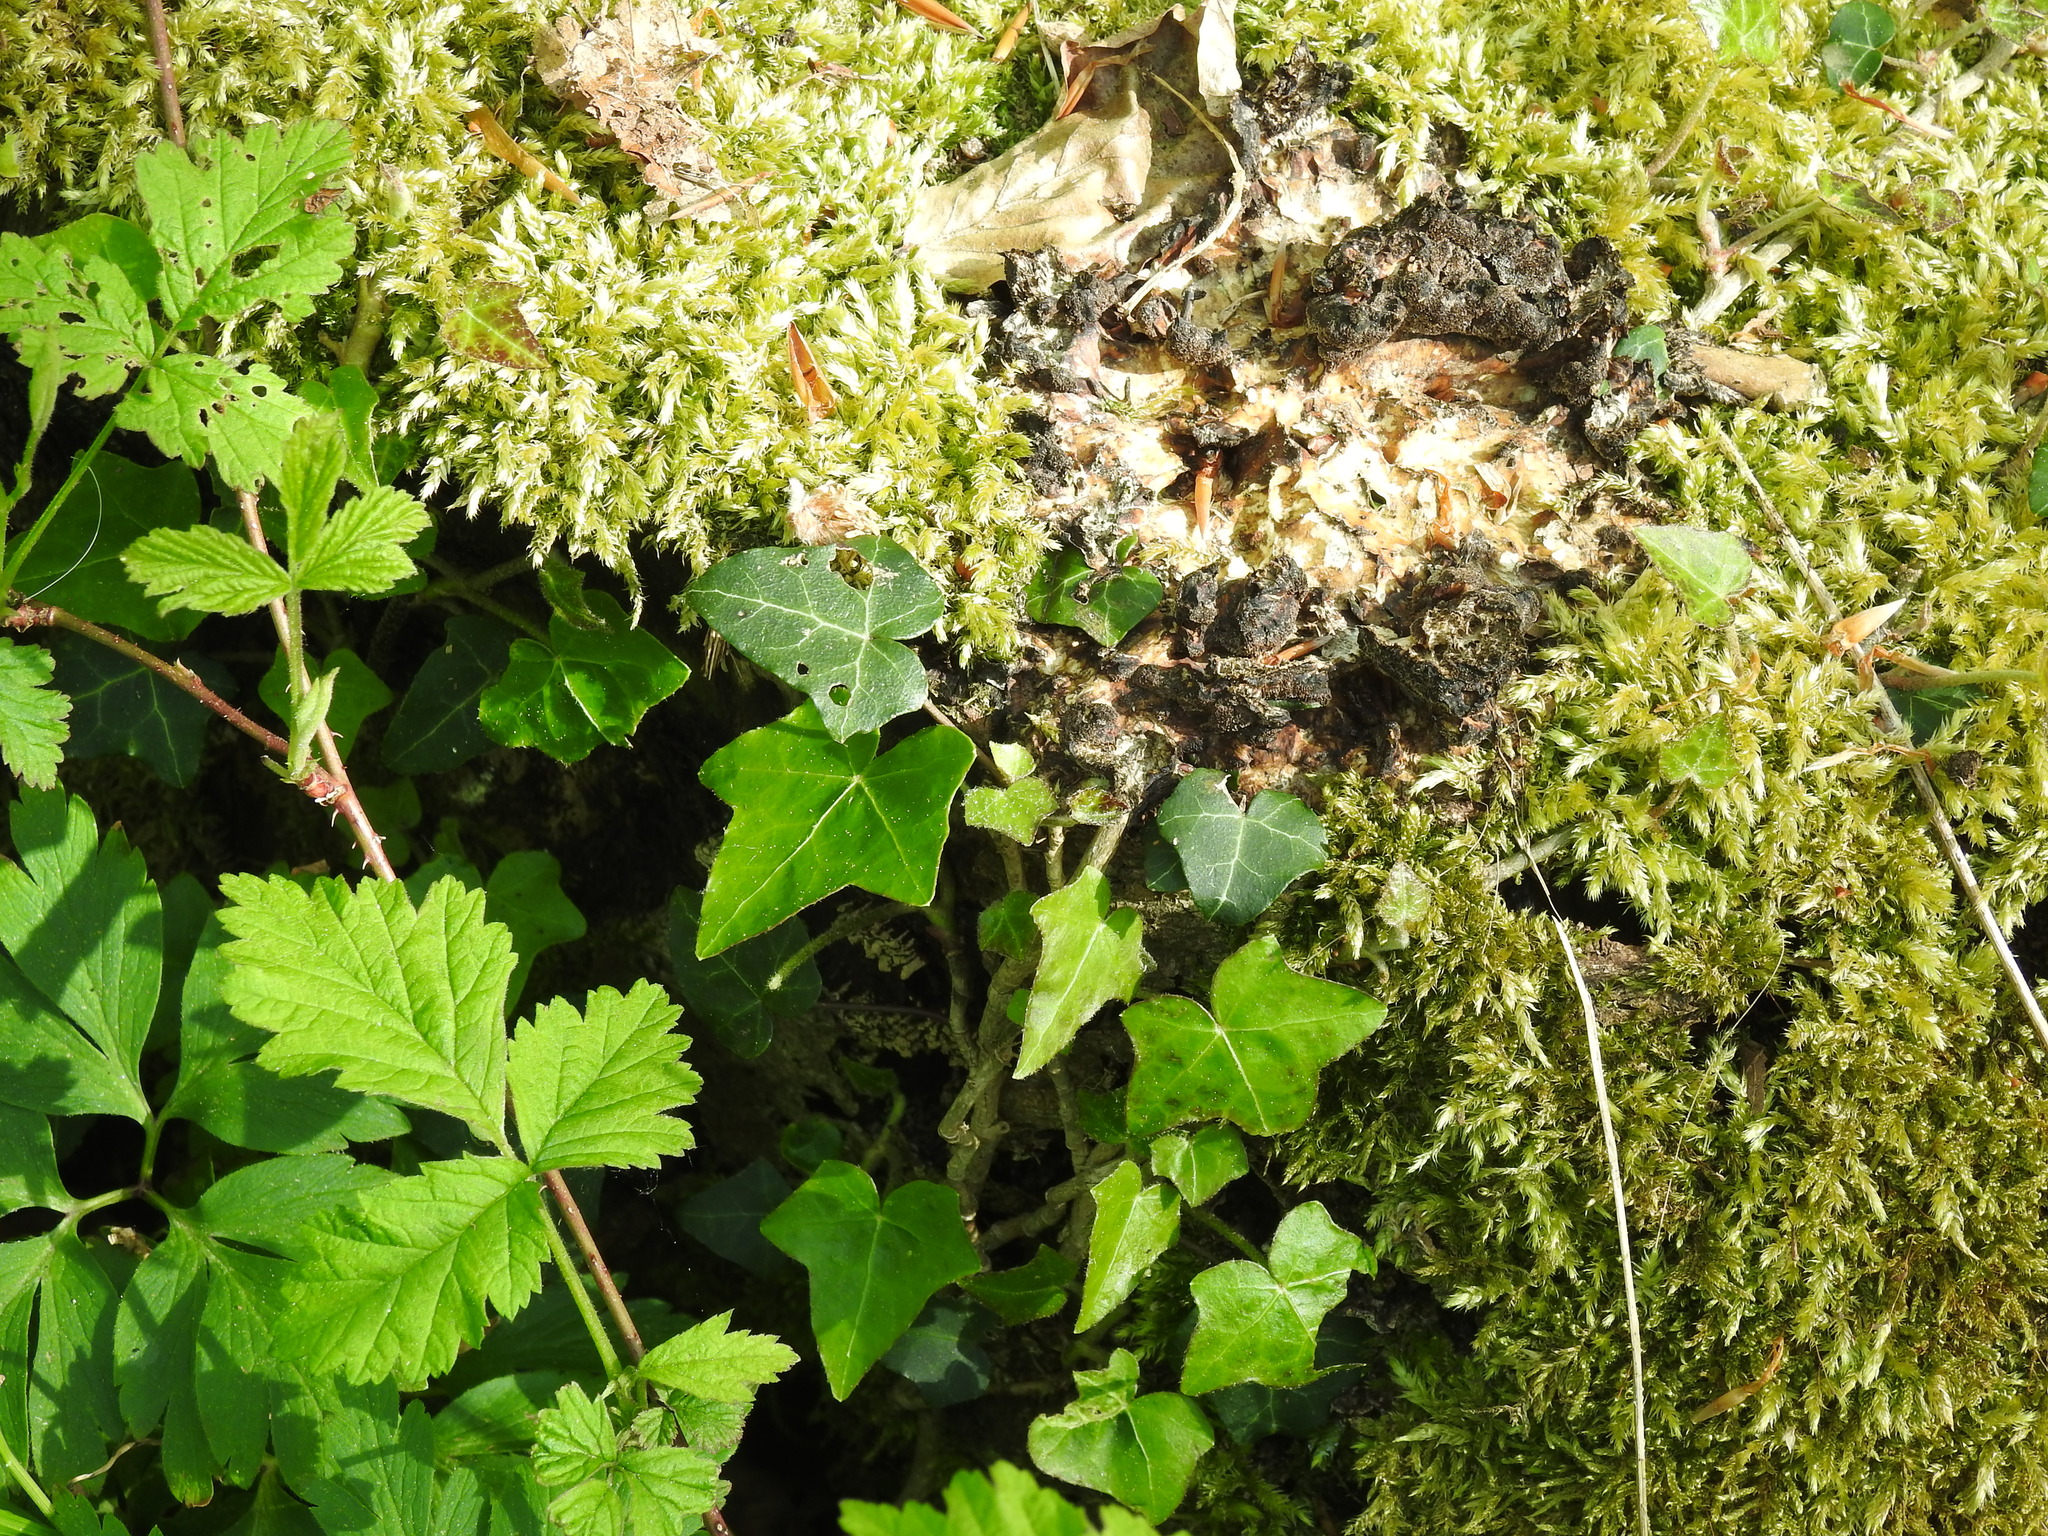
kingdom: Plantae
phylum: Tracheophyta
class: Magnoliopsida
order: Apiales
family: Araliaceae
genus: Hedera
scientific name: Hedera helix
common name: Ivy
